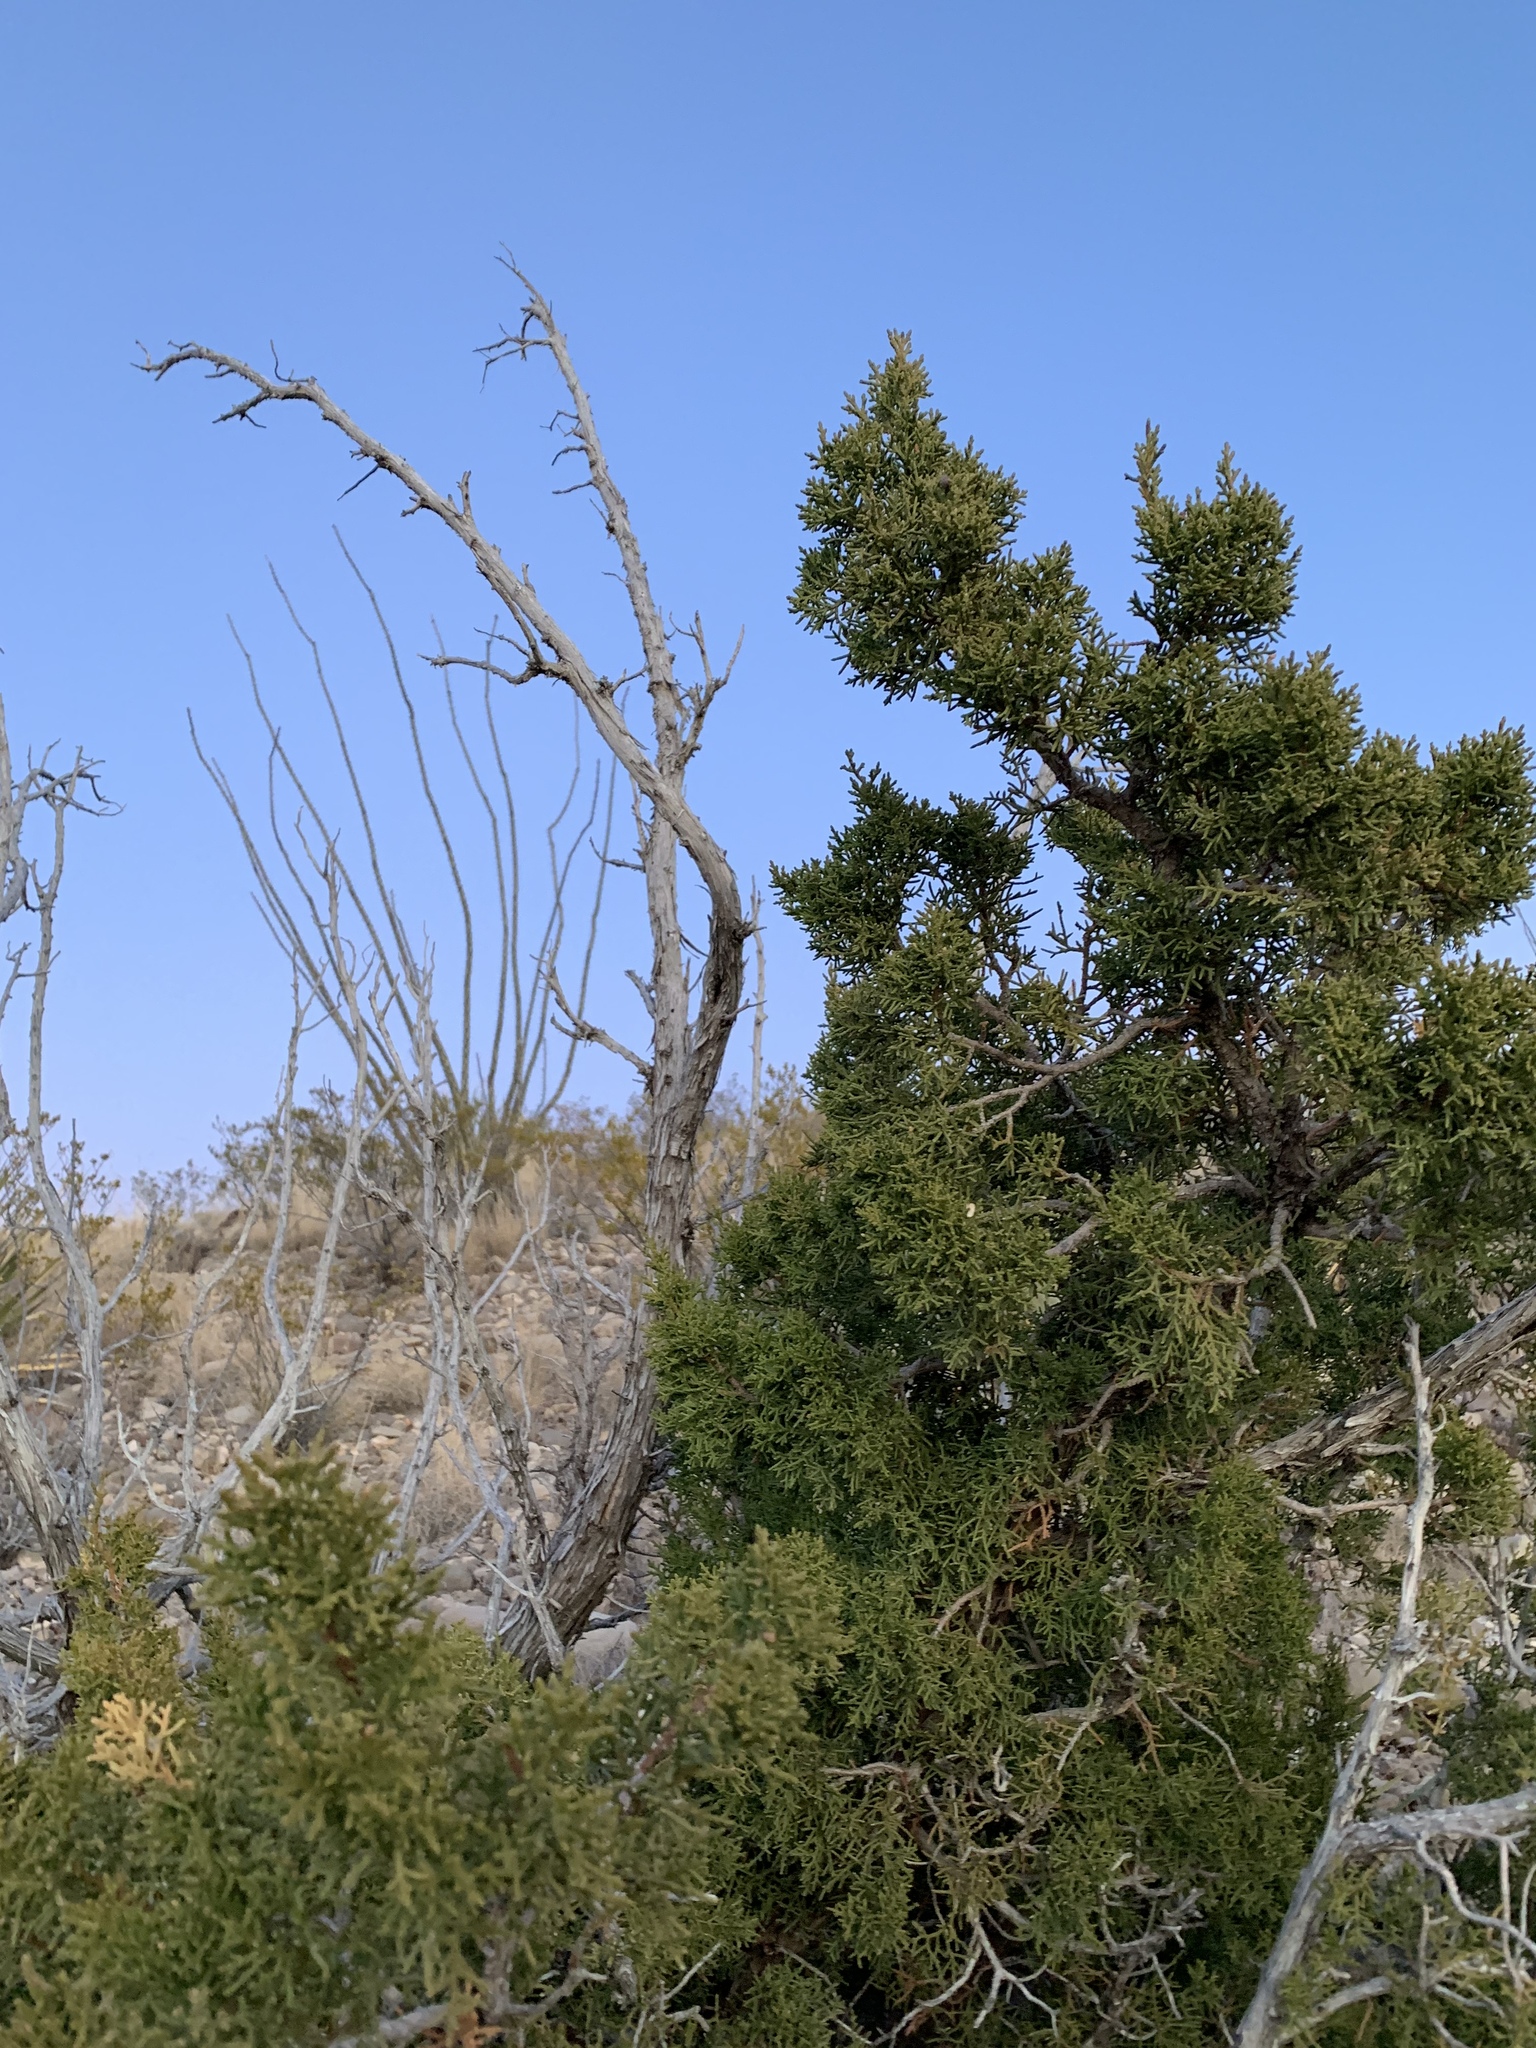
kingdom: Plantae
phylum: Tracheophyta
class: Pinopsida
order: Pinales
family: Cupressaceae
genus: Juniperus
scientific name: Juniperus monosperma
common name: One-seed juniper
